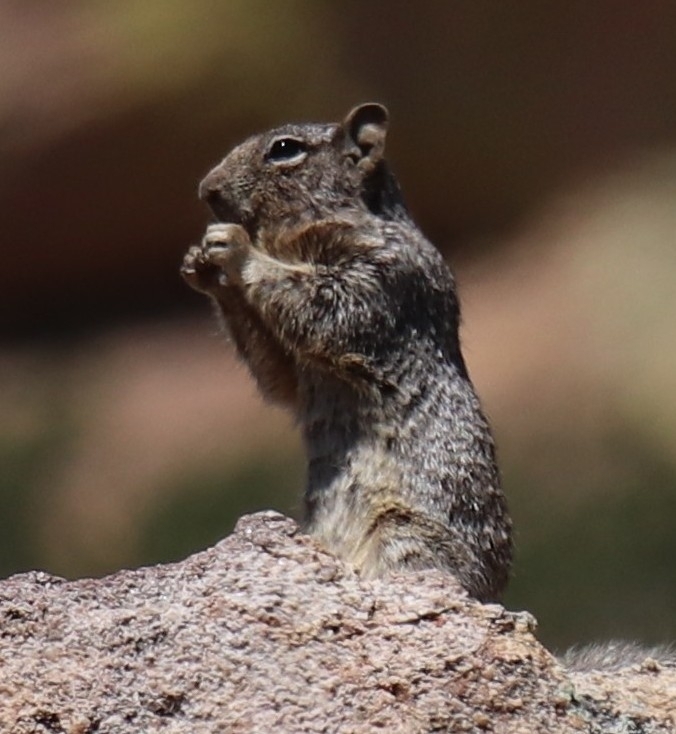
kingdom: Animalia
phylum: Chordata
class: Mammalia
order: Rodentia
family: Sciuridae
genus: Otospermophilus
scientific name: Otospermophilus variegatus
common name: Rock squirrel
